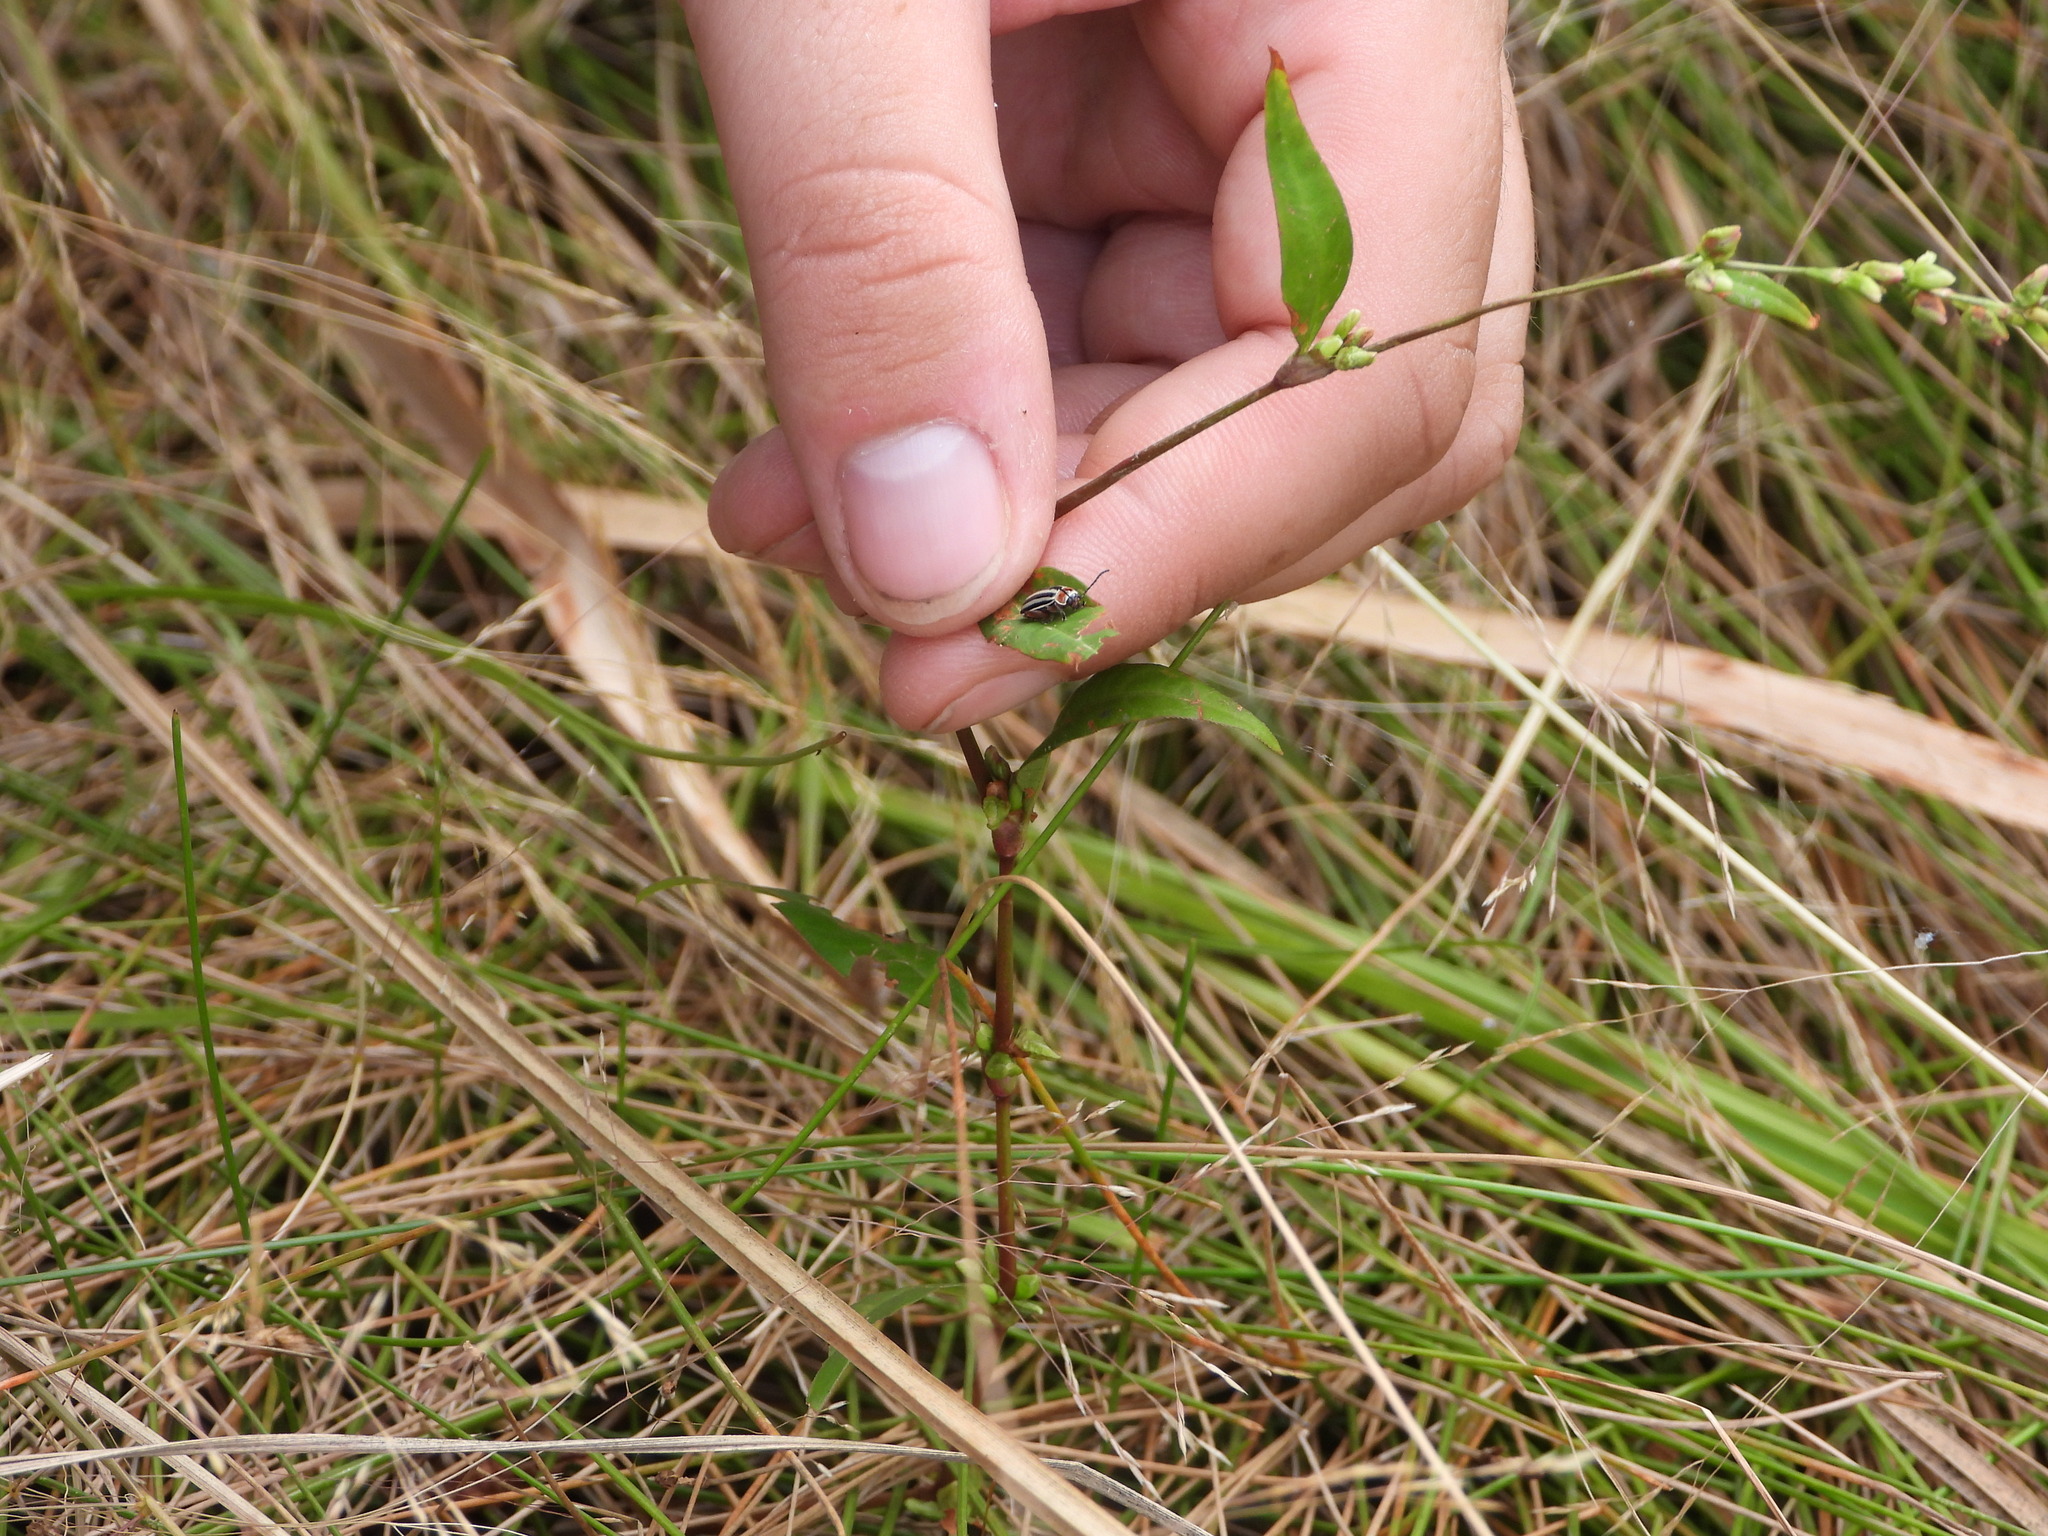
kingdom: Plantae
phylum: Tracheophyta
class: Magnoliopsida
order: Caryophyllales
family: Polygonaceae
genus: Persicaria
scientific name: Persicaria hydropiper
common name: Water-pepper
